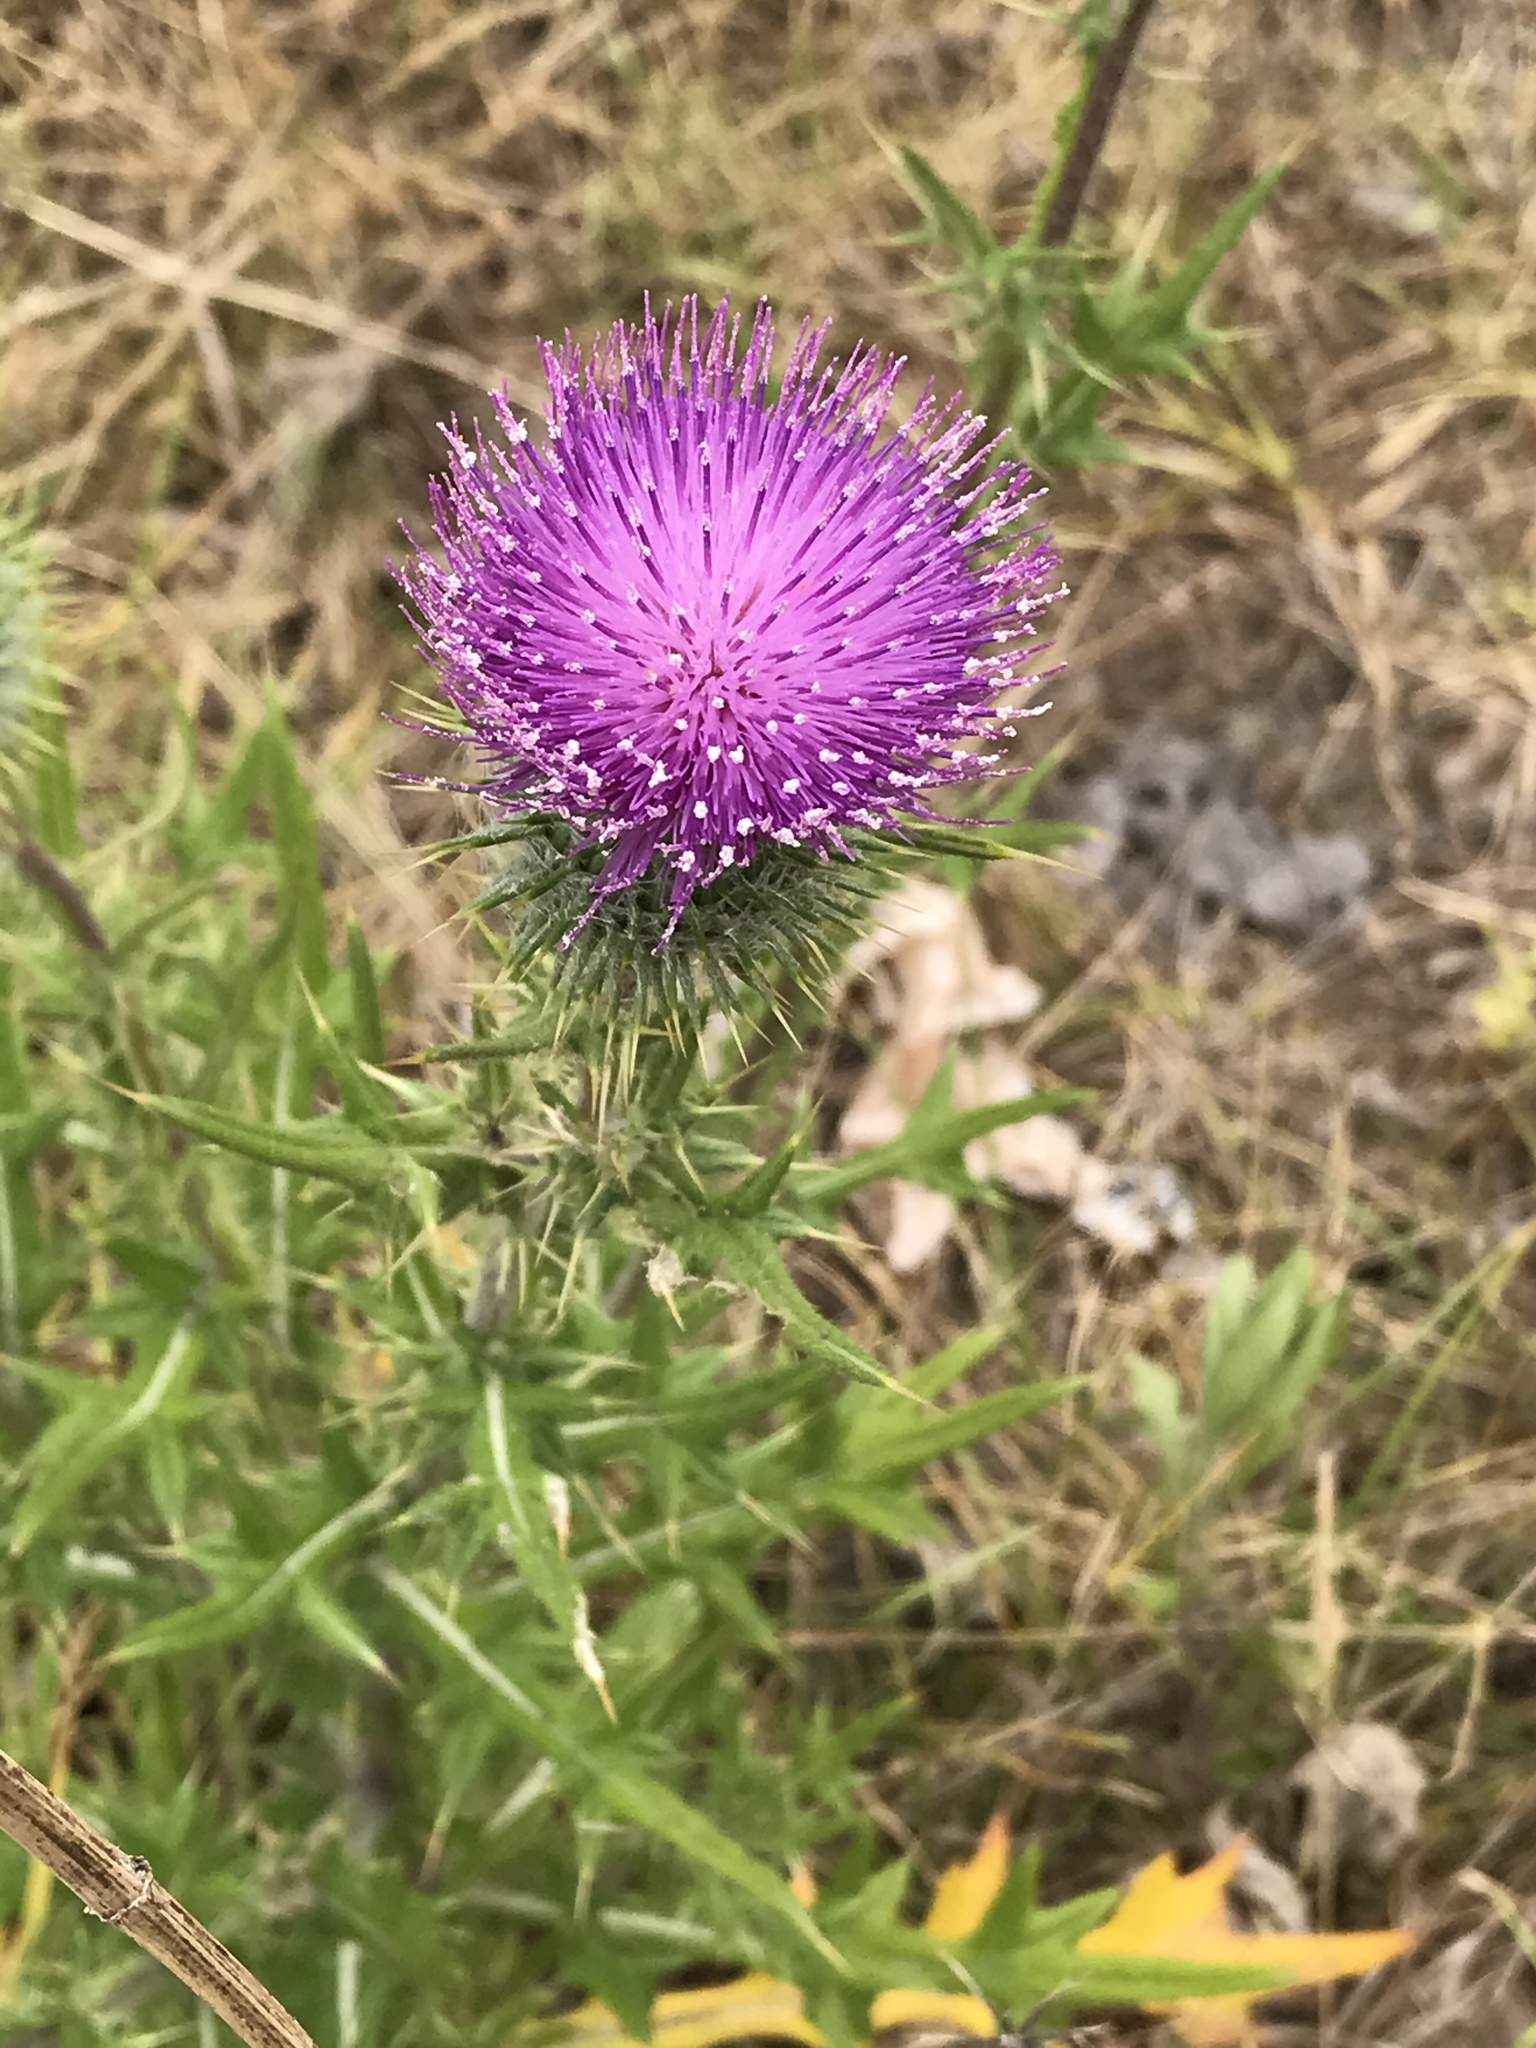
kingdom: Plantae
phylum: Tracheophyta
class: Magnoliopsida
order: Asterales
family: Asteraceae
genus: Cirsium
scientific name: Cirsium vulgare
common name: Bull thistle
